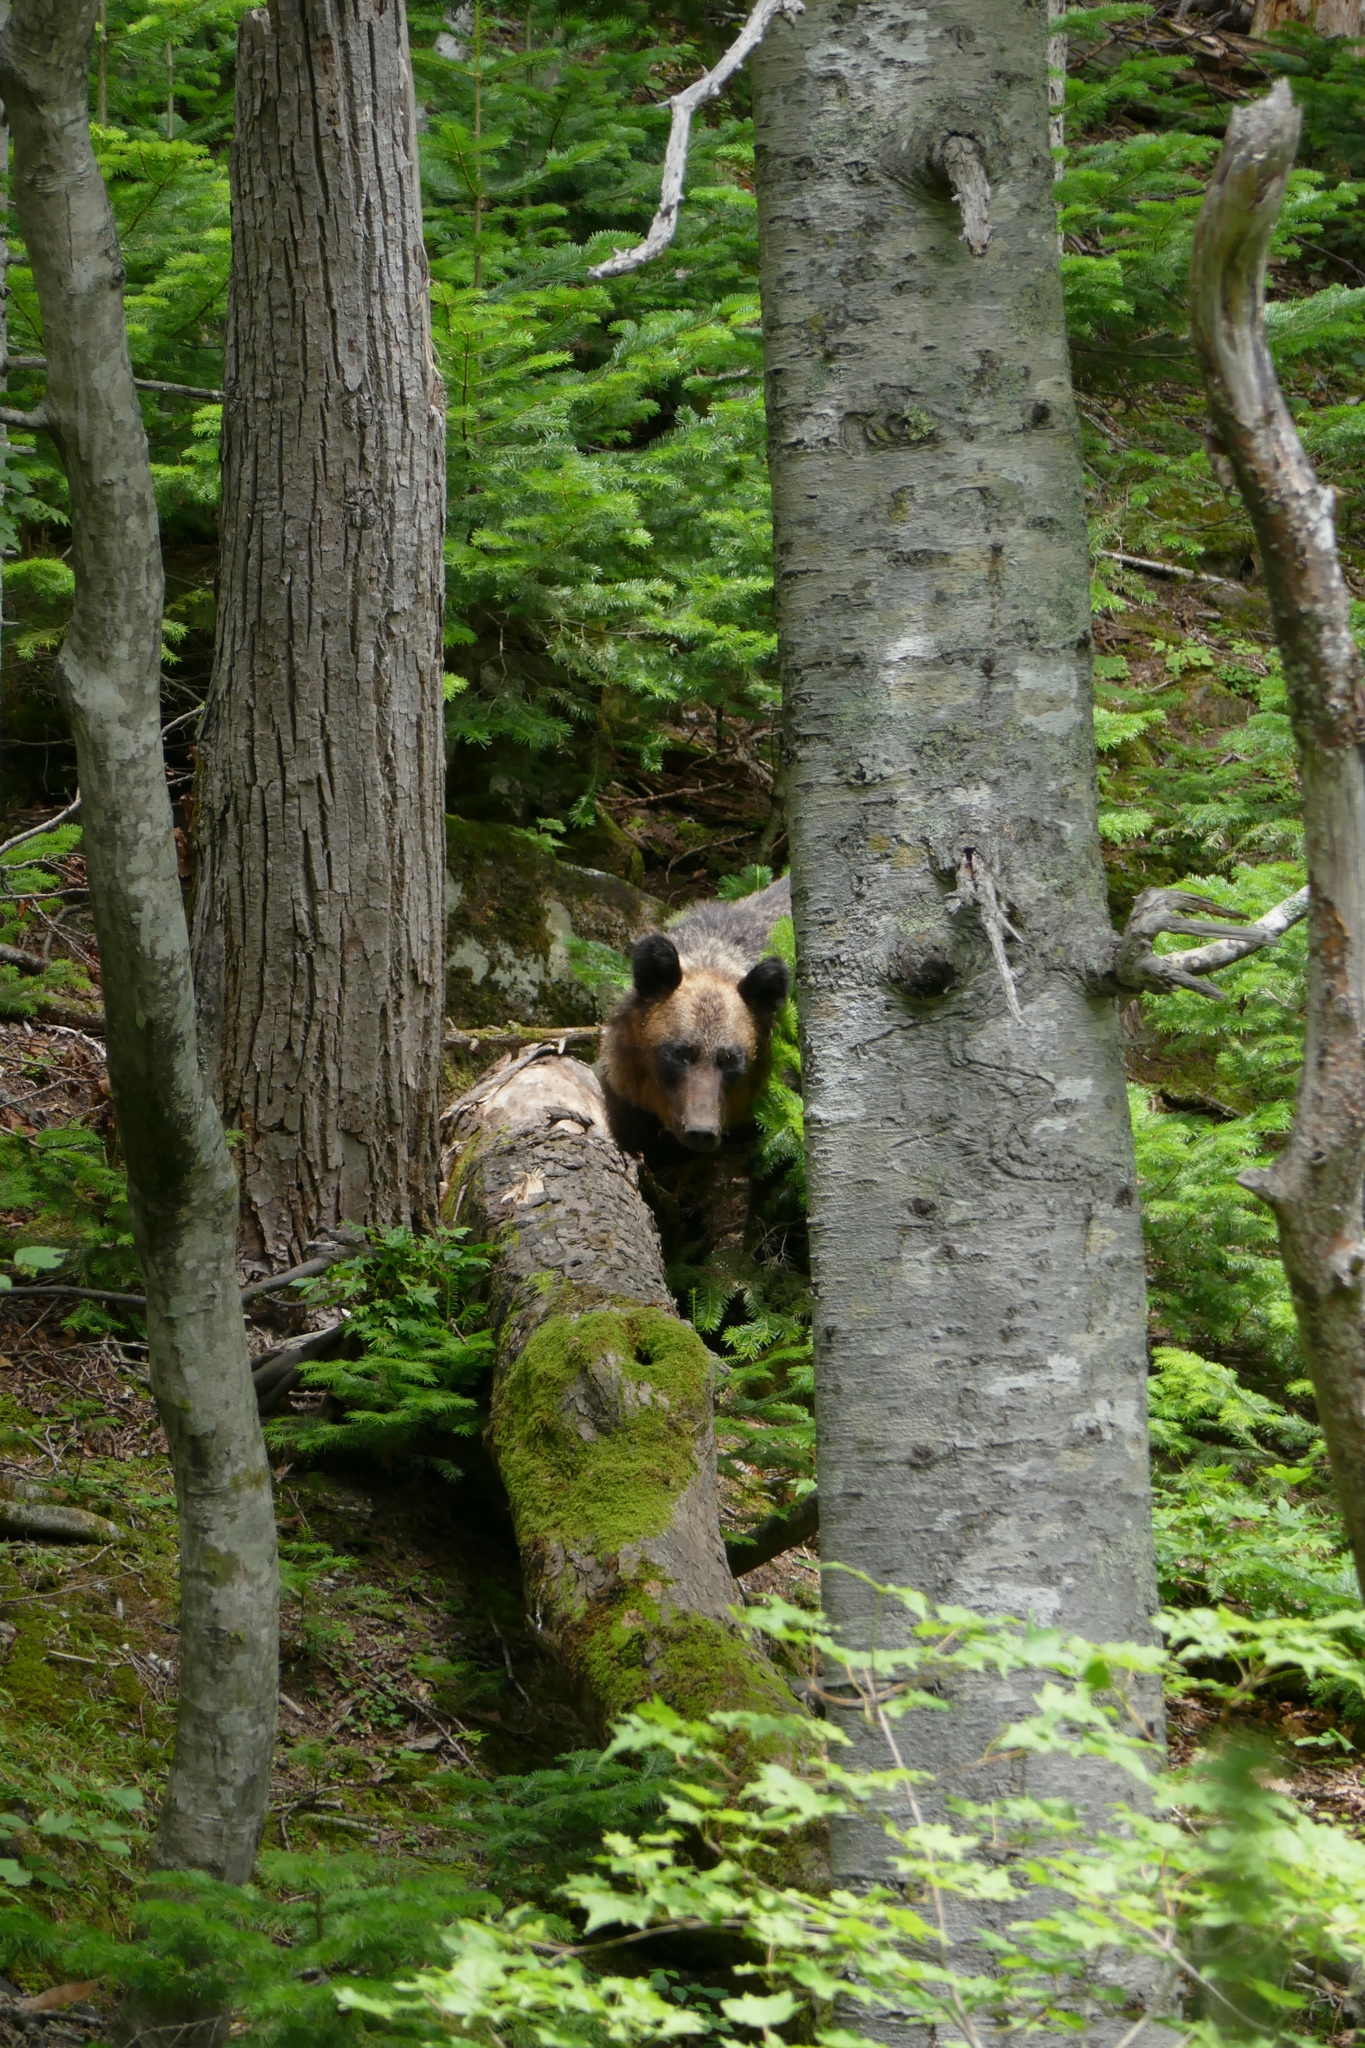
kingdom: Animalia
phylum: Chordata
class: Mammalia
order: Carnivora
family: Ursidae
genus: Ursus
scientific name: Ursus arctos
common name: Brown bear
